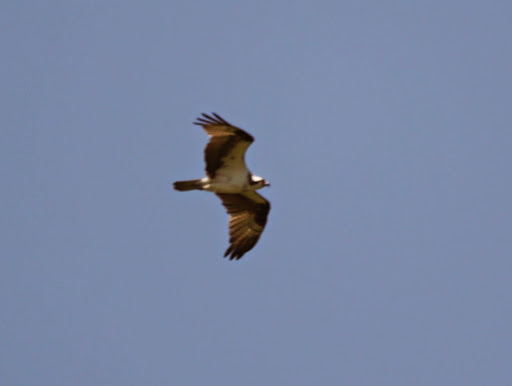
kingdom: Animalia
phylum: Chordata
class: Aves
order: Accipitriformes
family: Pandionidae
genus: Pandion
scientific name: Pandion haliaetus
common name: Osprey
